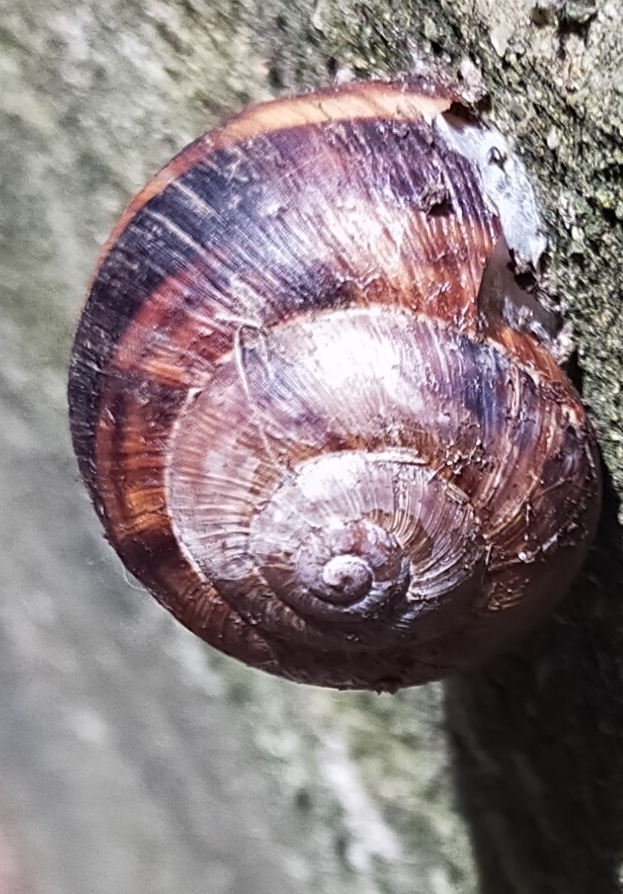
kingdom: Animalia
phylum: Mollusca
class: Gastropoda
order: Stylommatophora
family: Helicidae
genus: Helix
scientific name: Helix lucorum
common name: Turkish snail
